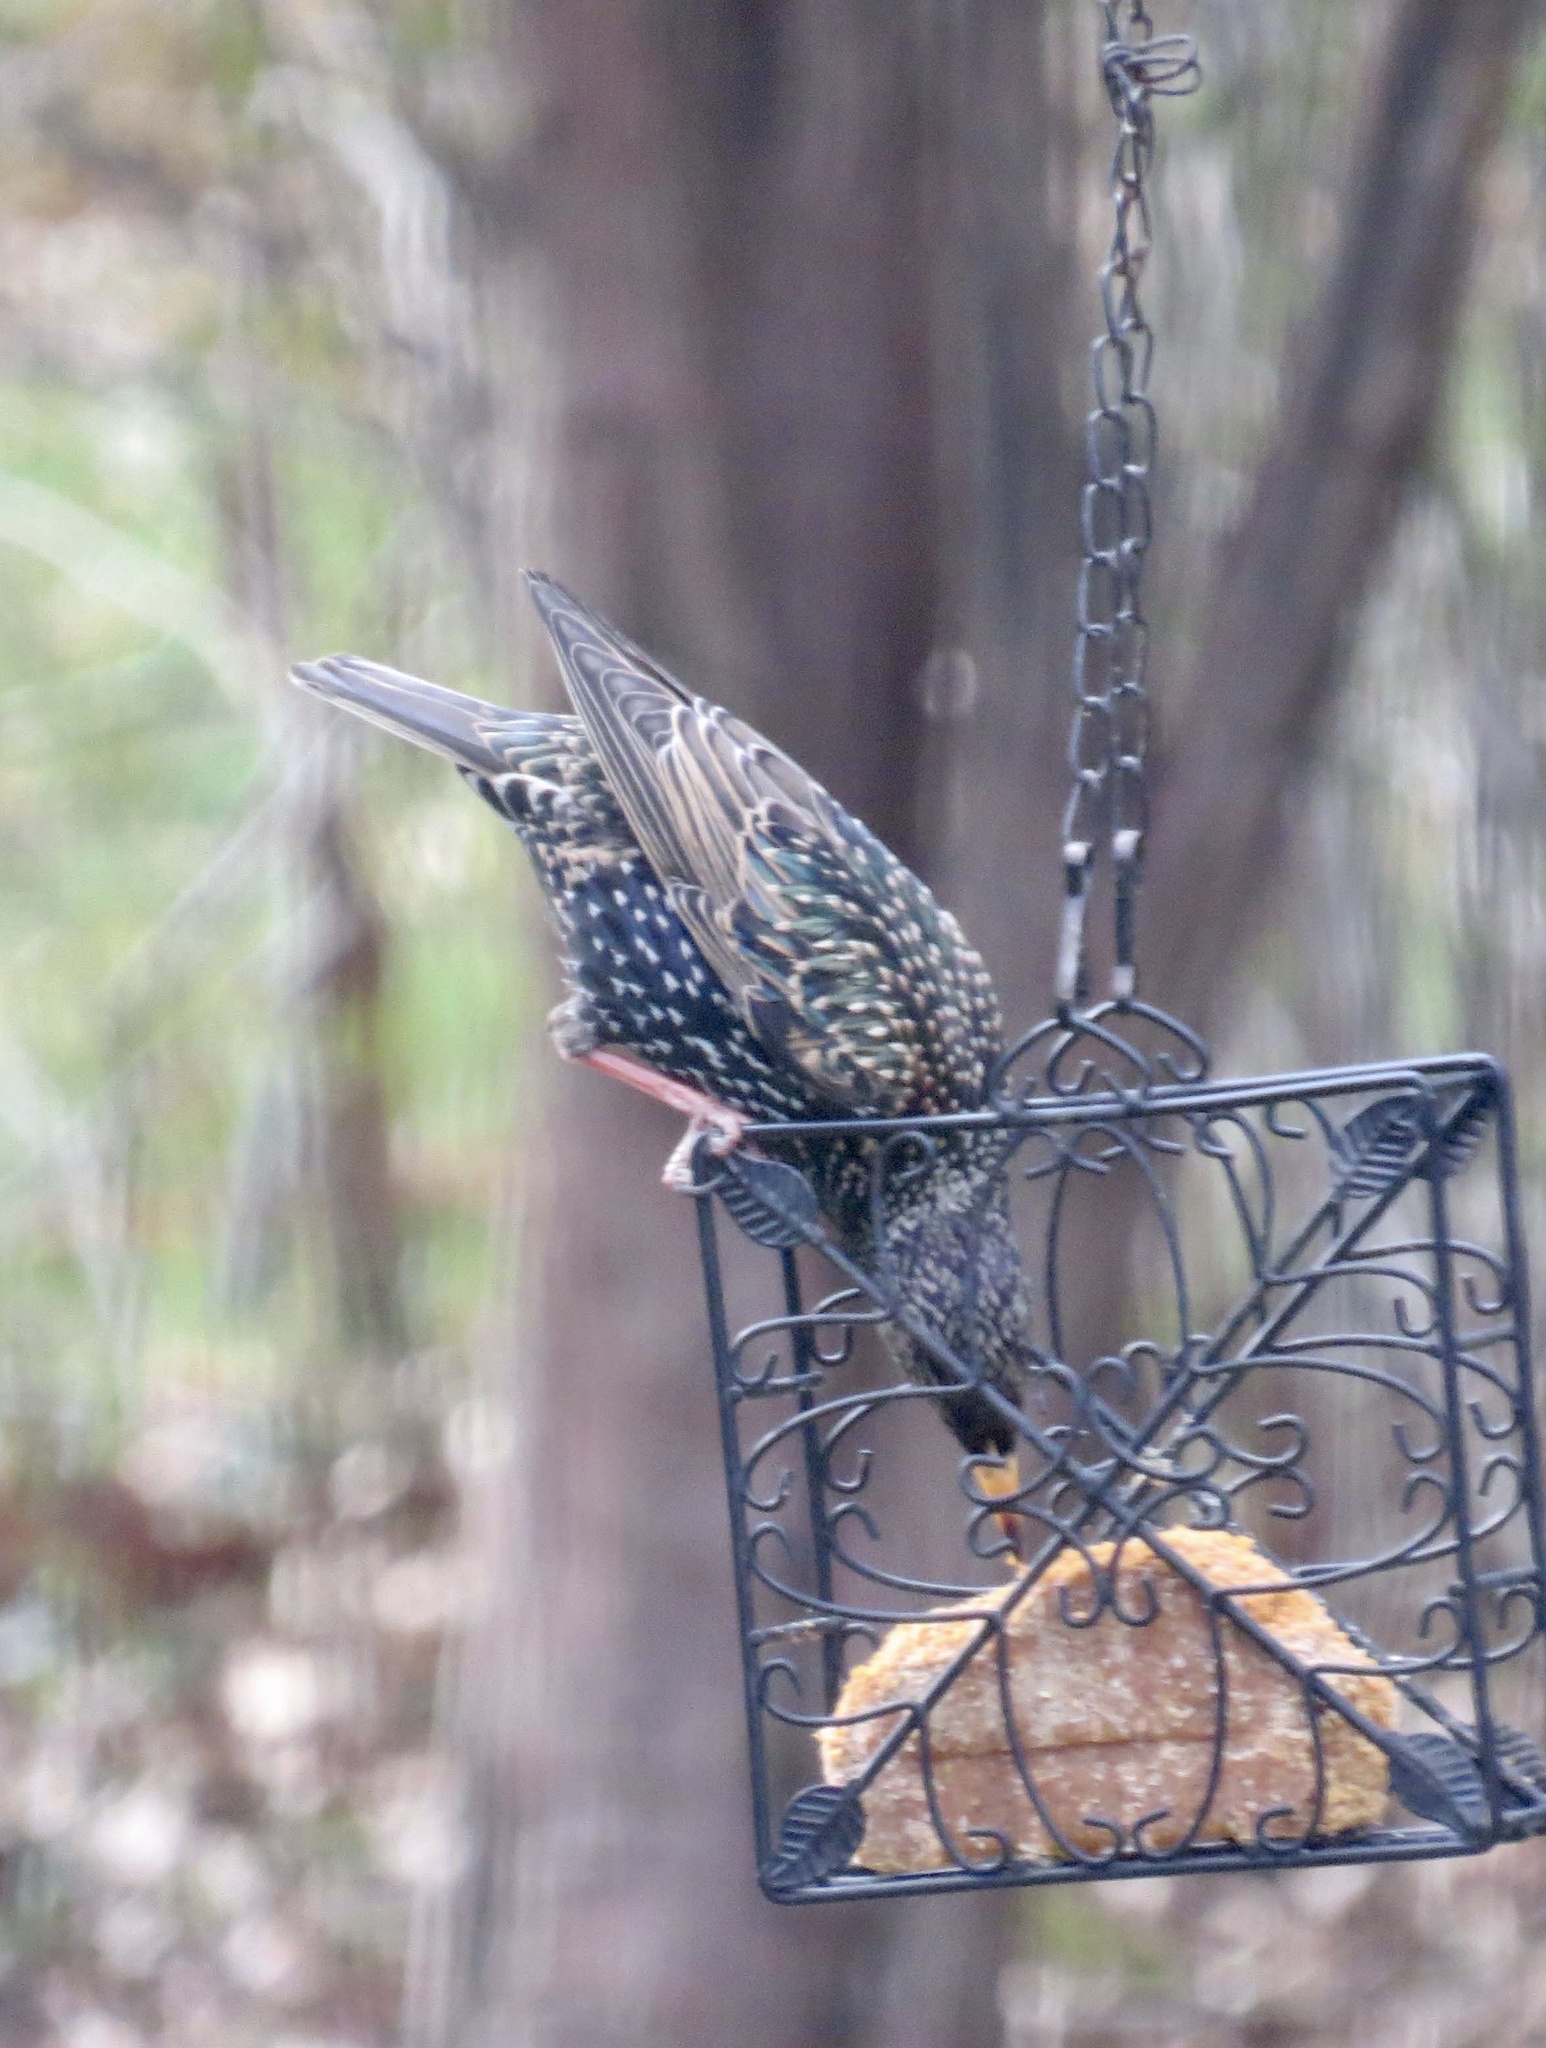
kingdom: Animalia
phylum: Chordata
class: Aves
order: Passeriformes
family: Sturnidae
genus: Sturnus
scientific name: Sturnus vulgaris
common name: Common starling
